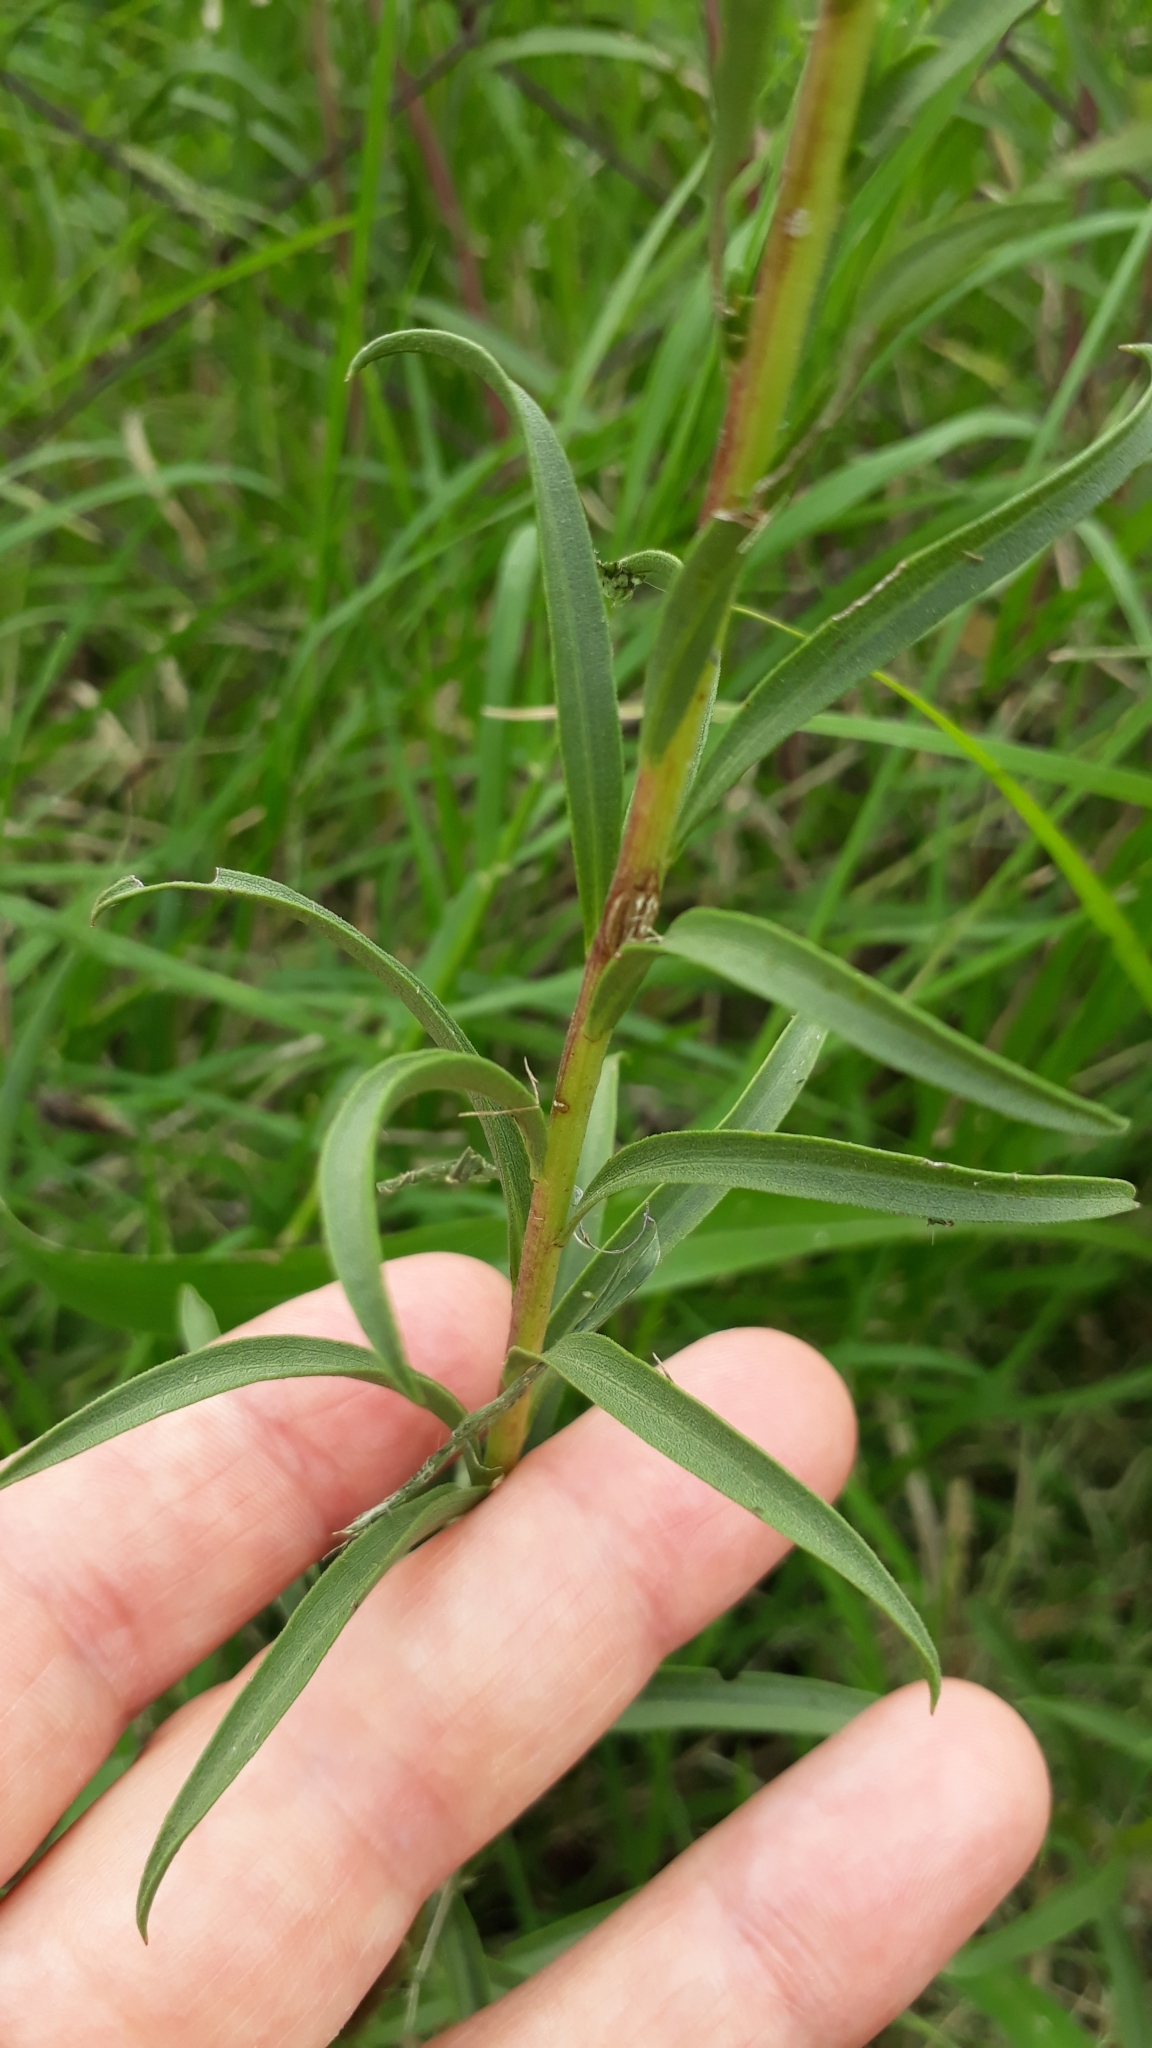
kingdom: Plantae
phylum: Tracheophyta
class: Magnoliopsida
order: Asterales
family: Asteraceae
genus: Solidago
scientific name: Solidago chilensis
